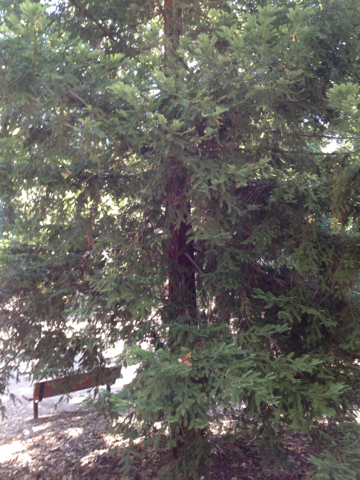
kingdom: Plantae
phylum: Tracheophyta
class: Pinopsida
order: Pinales
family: Cupressaceae
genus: Sequoia
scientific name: Sequoia sempervirens
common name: Coast redwood
